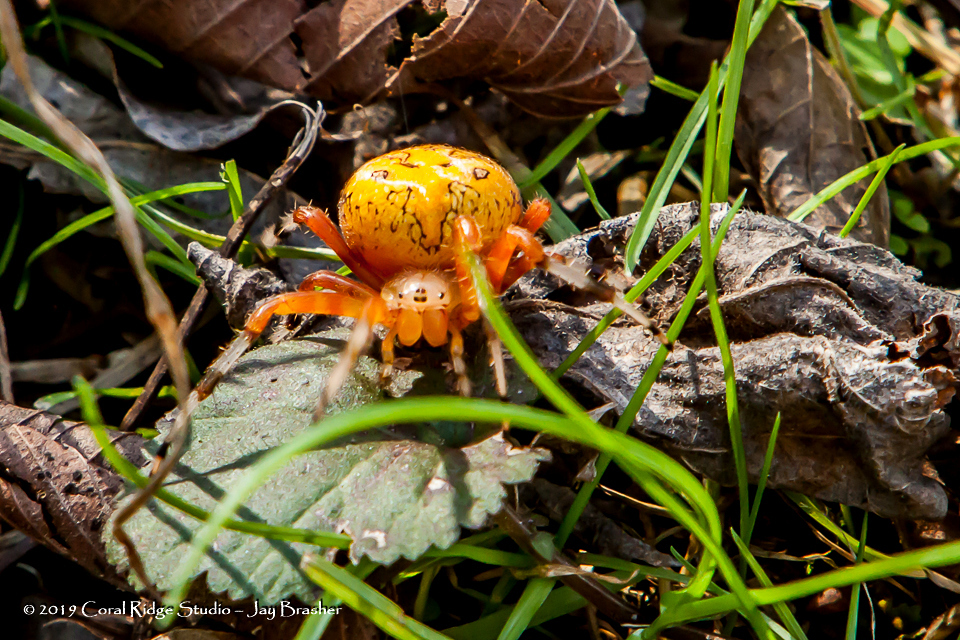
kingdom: Animalia
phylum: Arthropoda
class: Arachnida
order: Araneae
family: Araneidae
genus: Araneus
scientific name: Araneus marmoreus
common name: Marbled orbweaver
